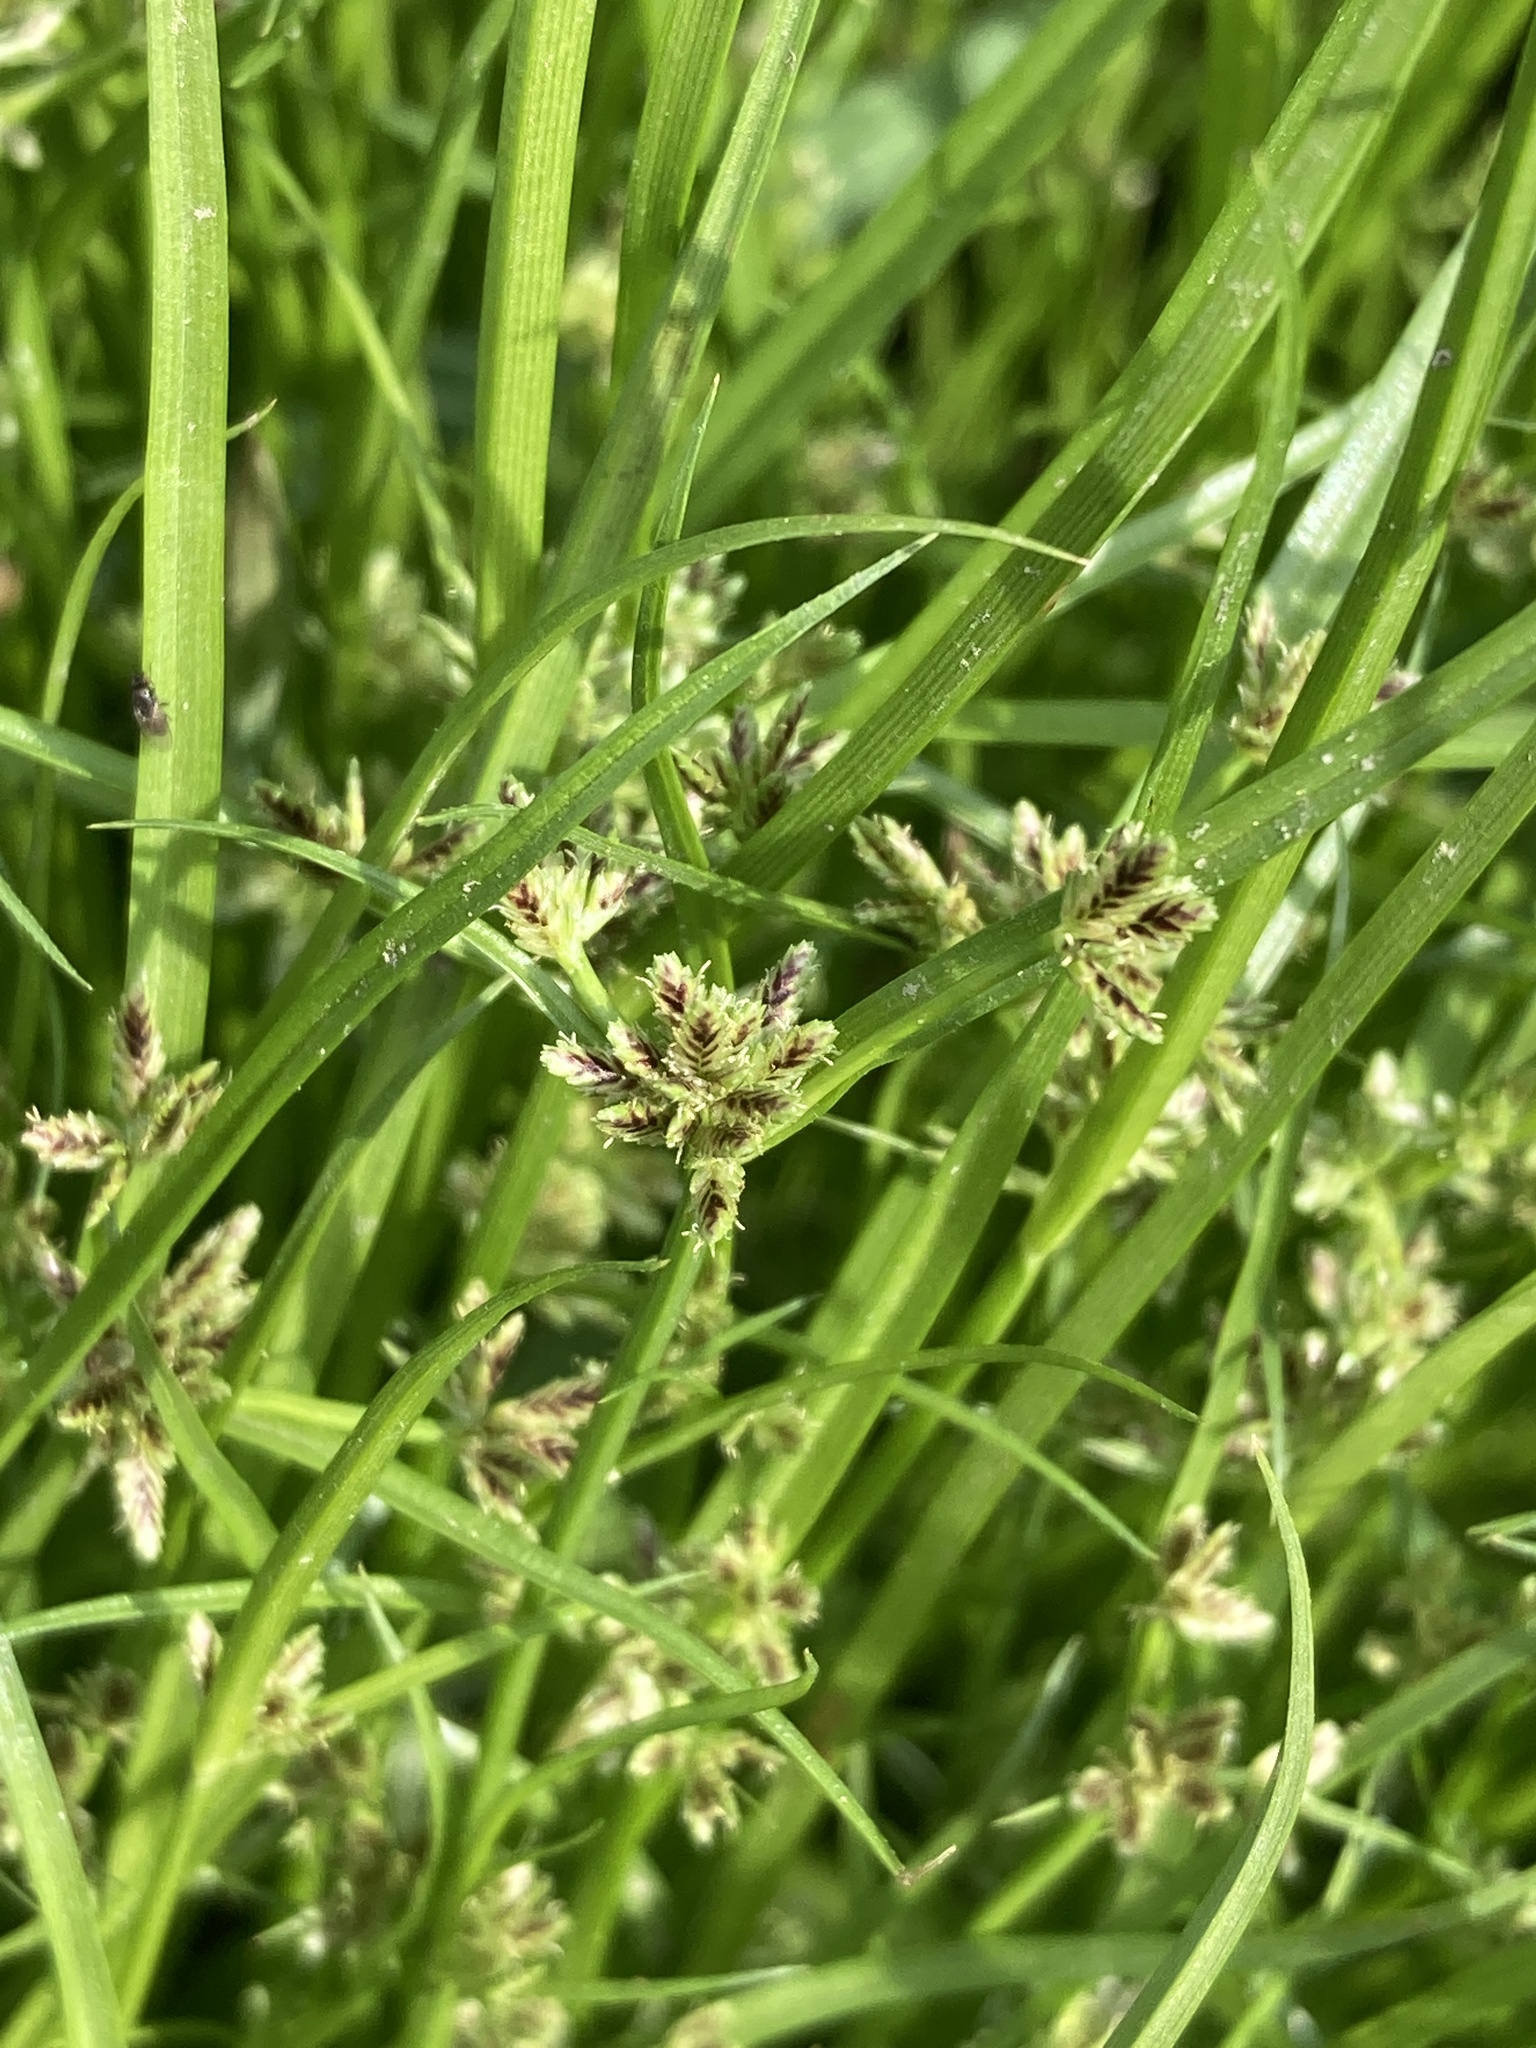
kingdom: Plantae
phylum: Tracheophyta
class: Liliopsida
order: Poales
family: Cyperaceae
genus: Cyperus
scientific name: Cyperus fuscus
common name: Brown galingale
